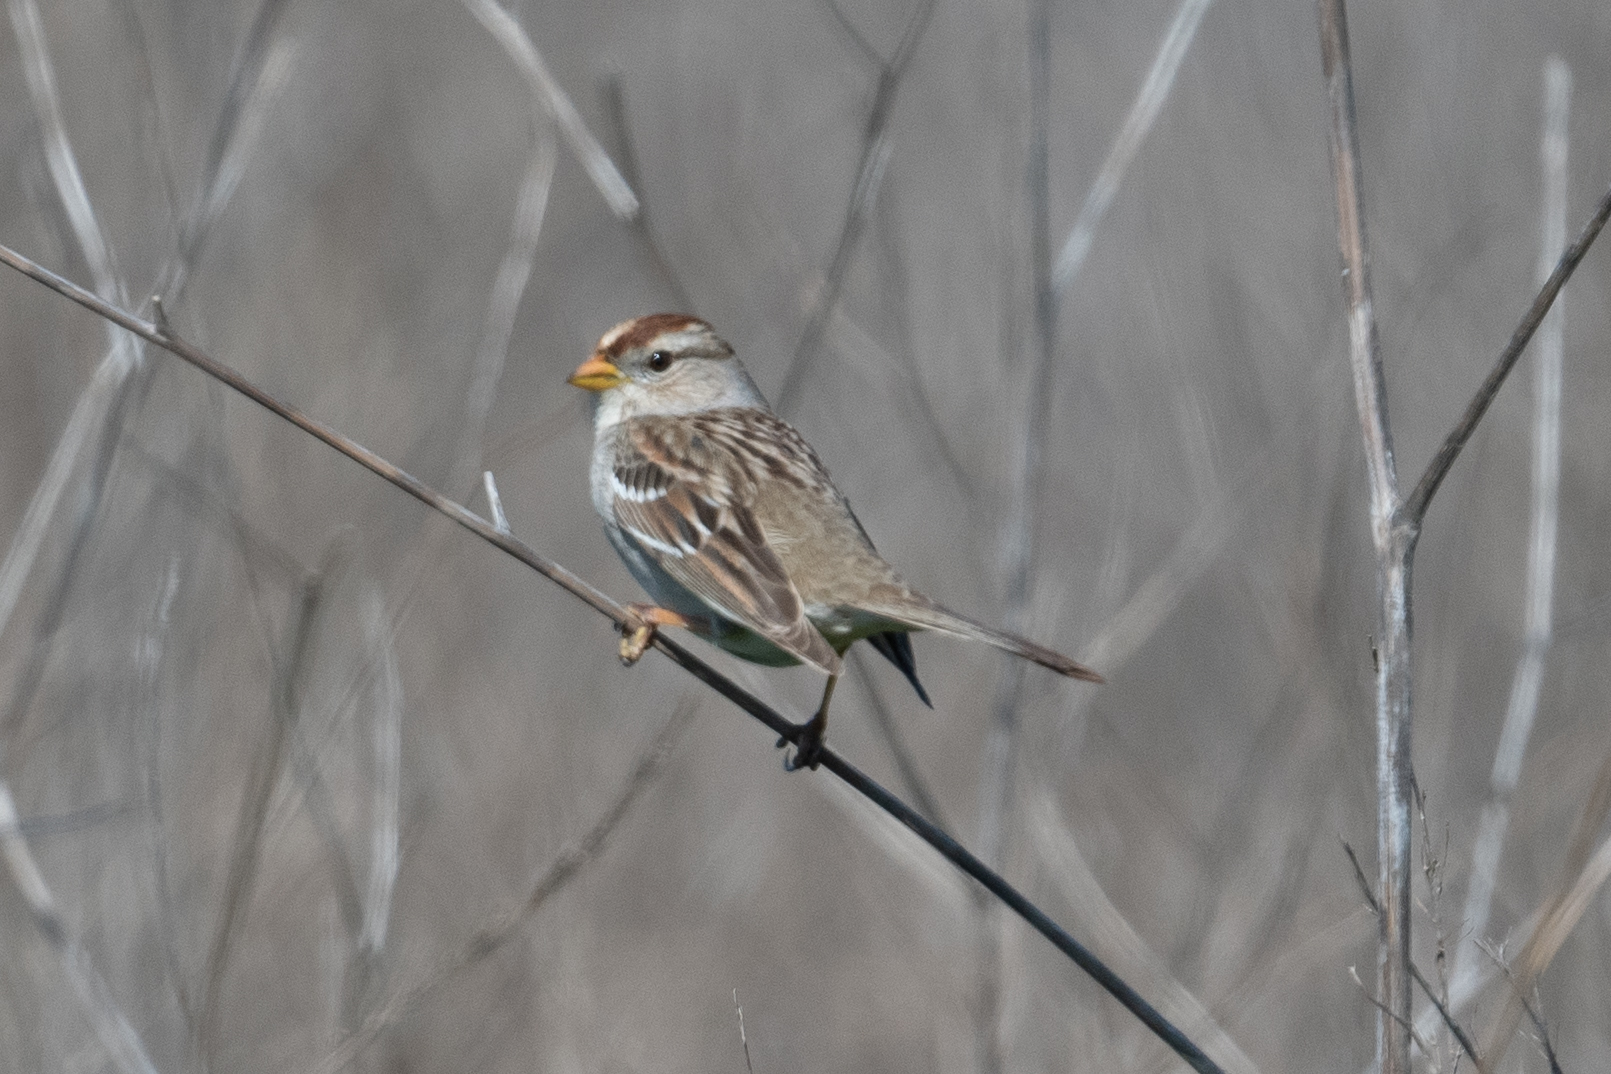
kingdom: Animalia
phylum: Chordata
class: Aves
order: Passeriformes
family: Passerellidae
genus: Zonotrichia
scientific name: Zonotrichia leucophrys
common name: White-crowned sparrow
